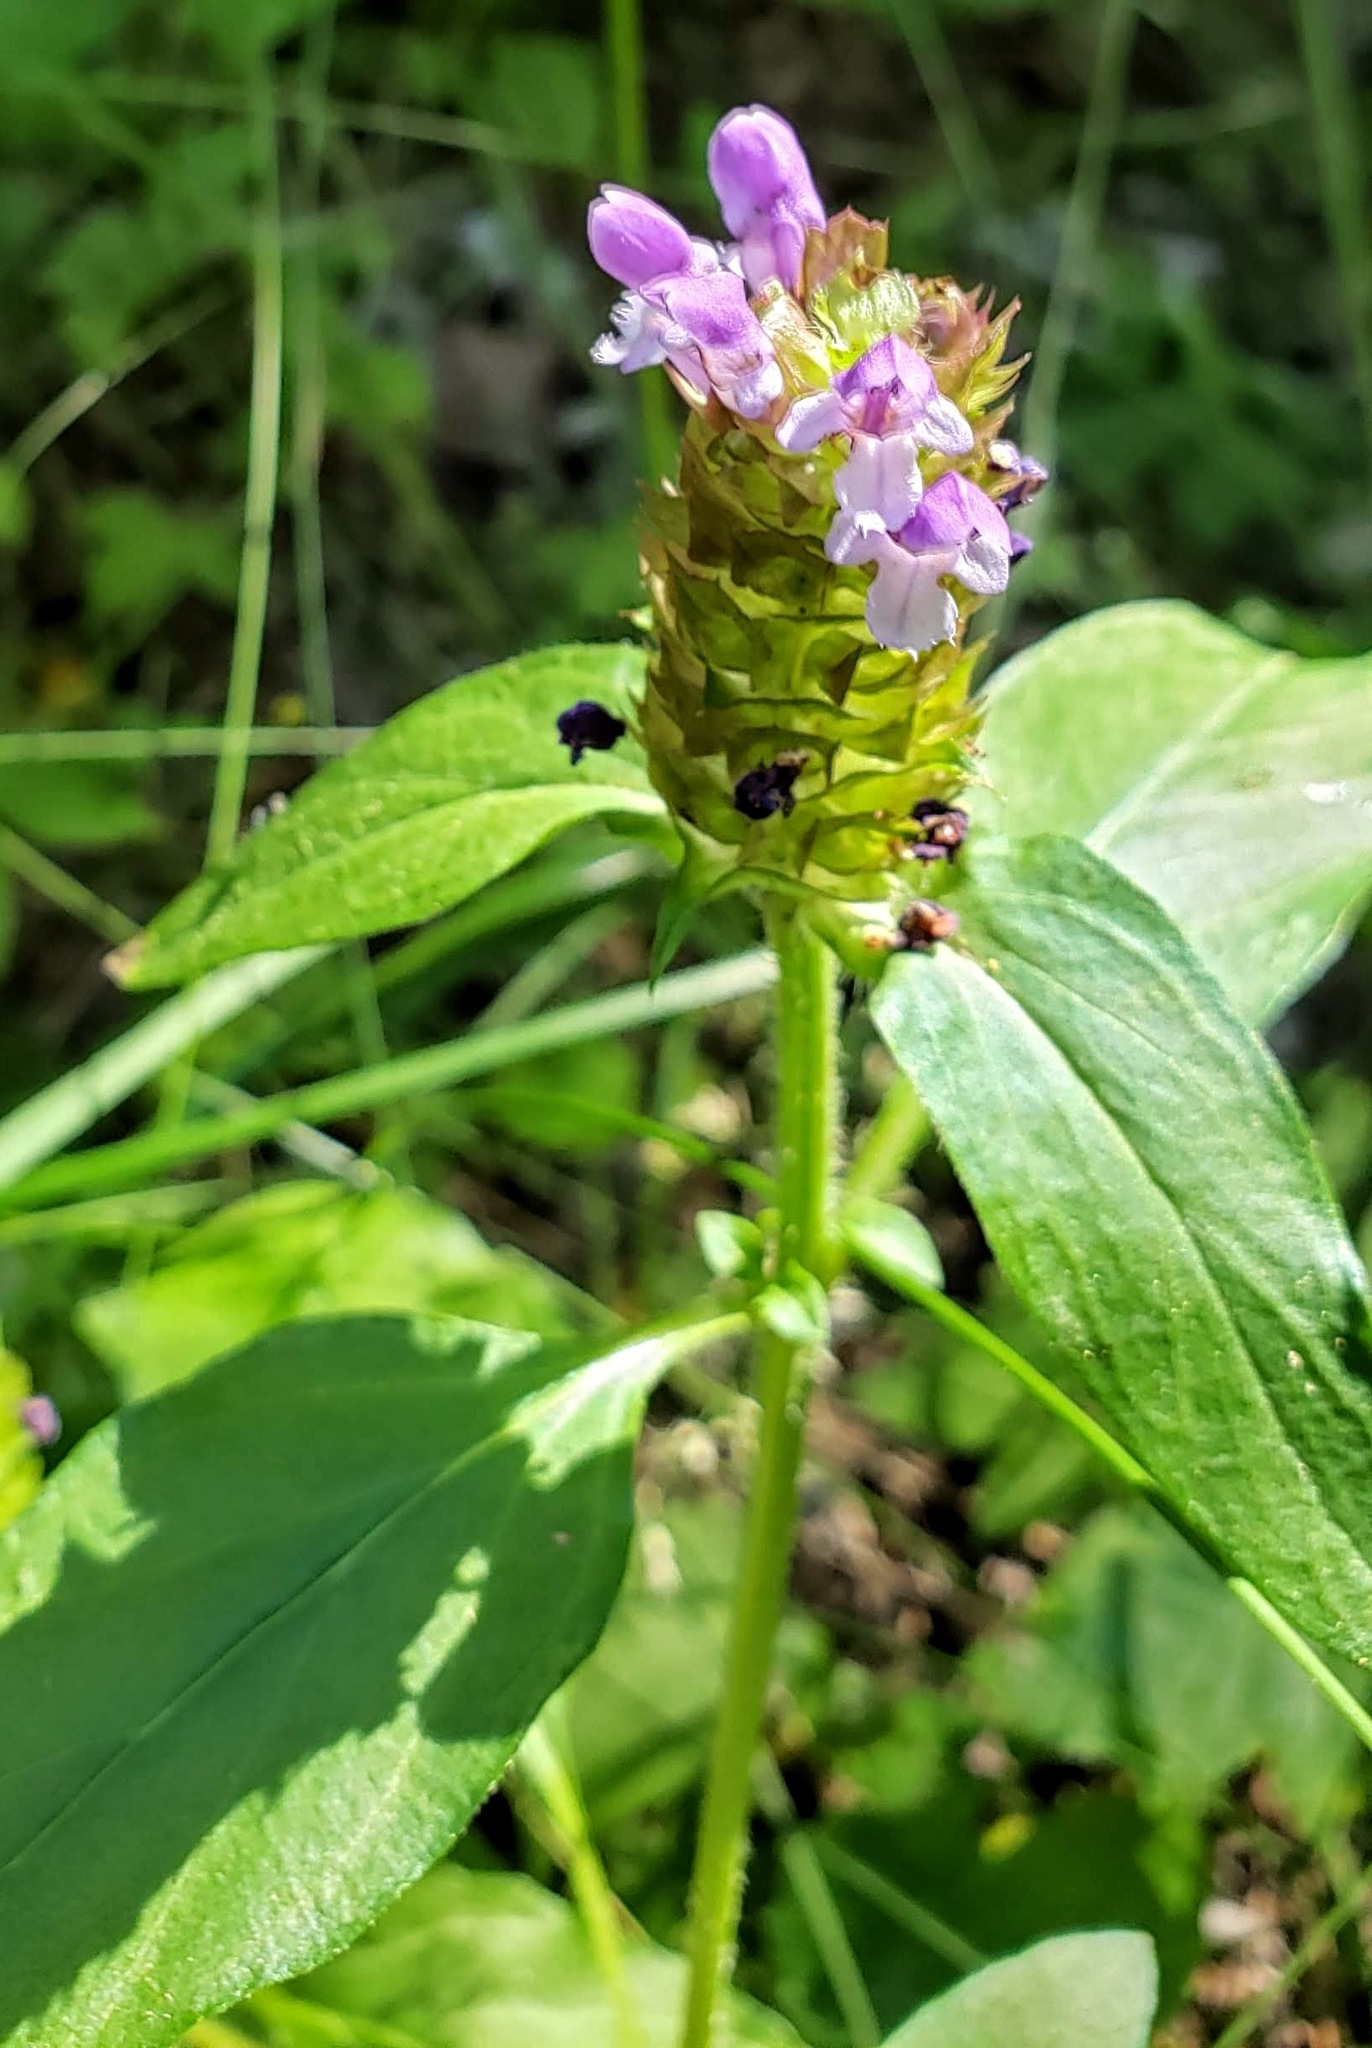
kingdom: Plantae
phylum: Tracheophyta
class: Magnoliopsida
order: Lamiales
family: Lamiaceae
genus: Prunella
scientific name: Prunella vulgaris
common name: Heal-all
